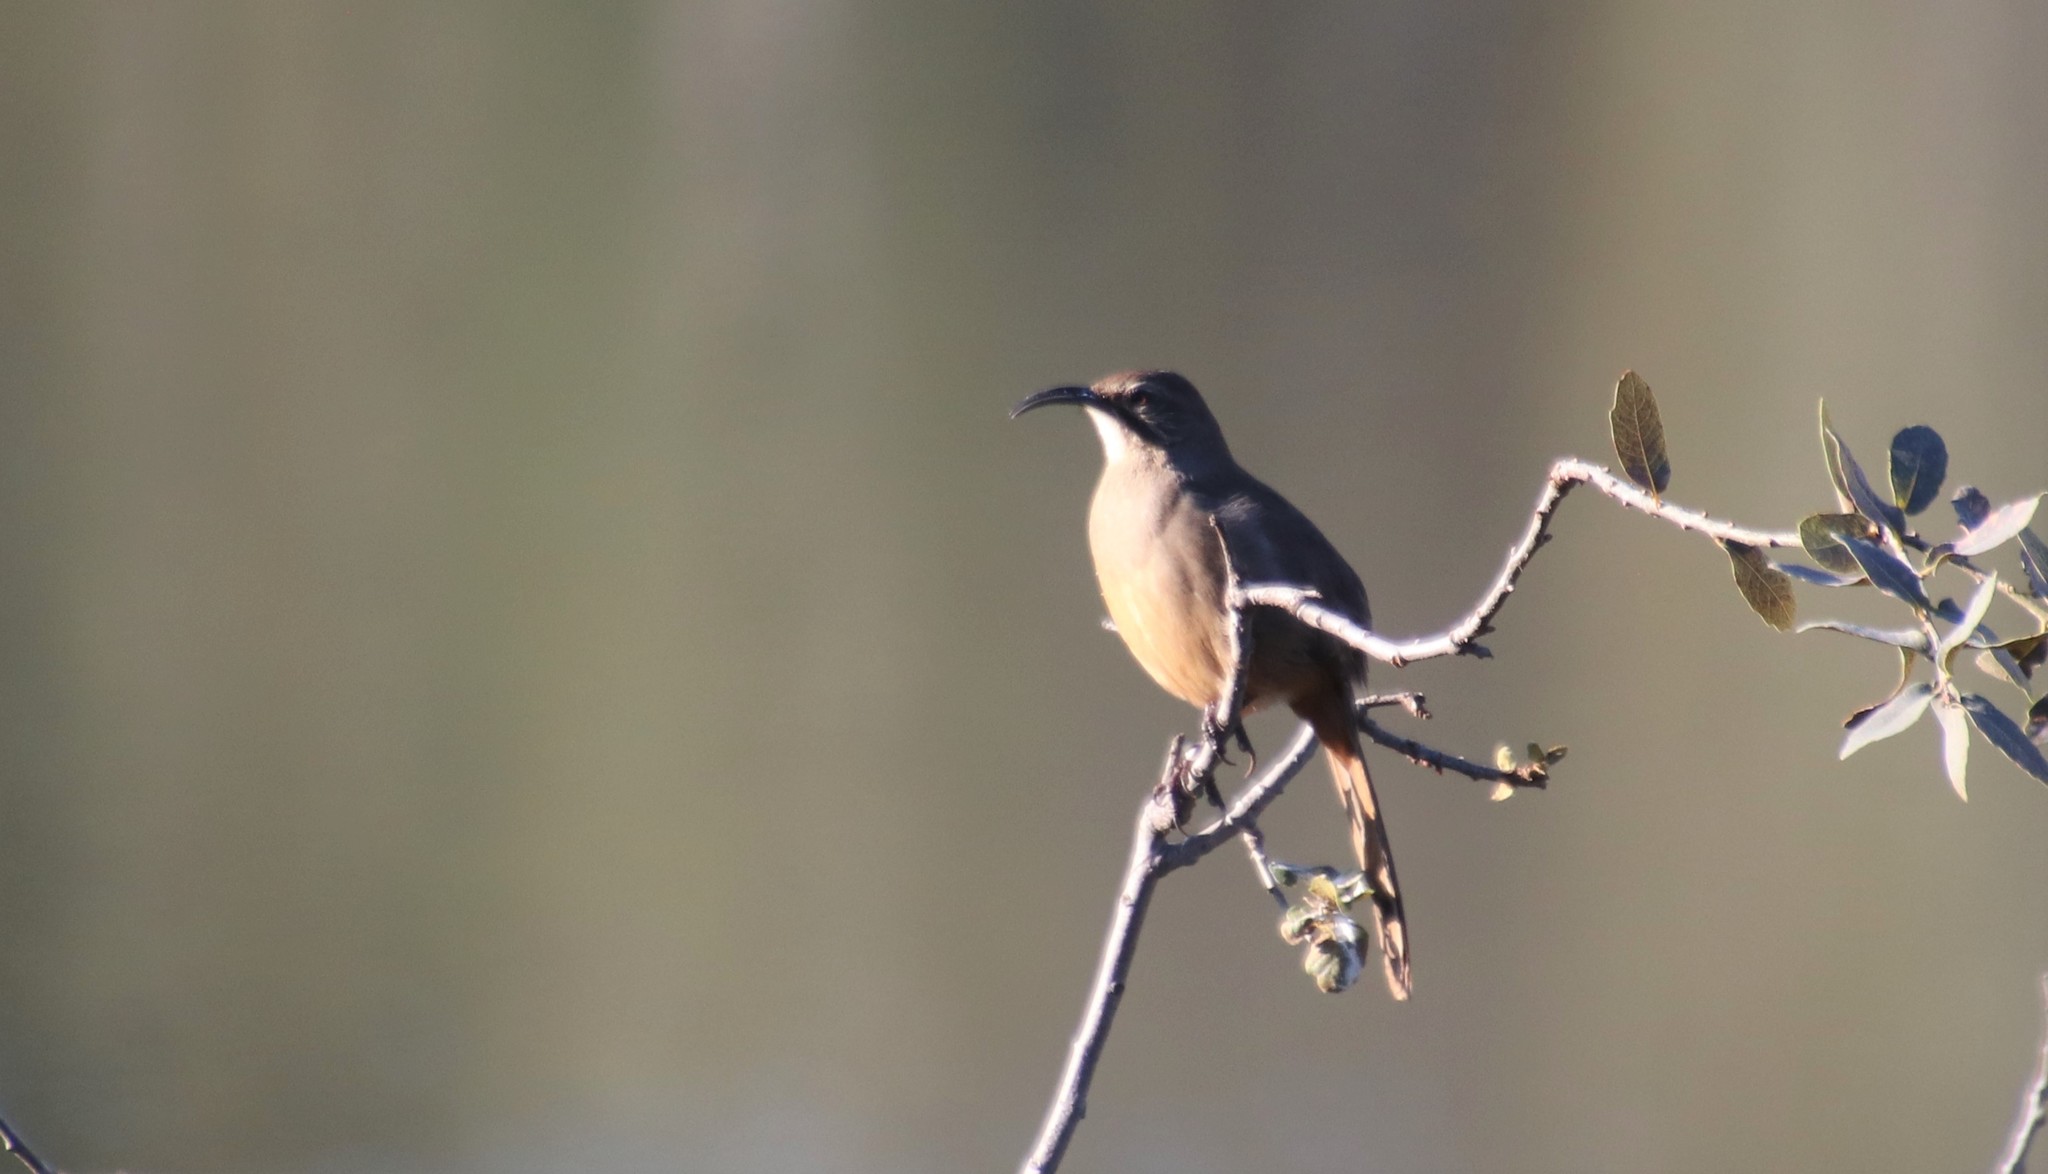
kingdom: Animalia
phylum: Chordata
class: Aves
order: Passeriformes
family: Mimidae
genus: Toxostoma
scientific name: Toxostoma redivivum
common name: California thrasher
